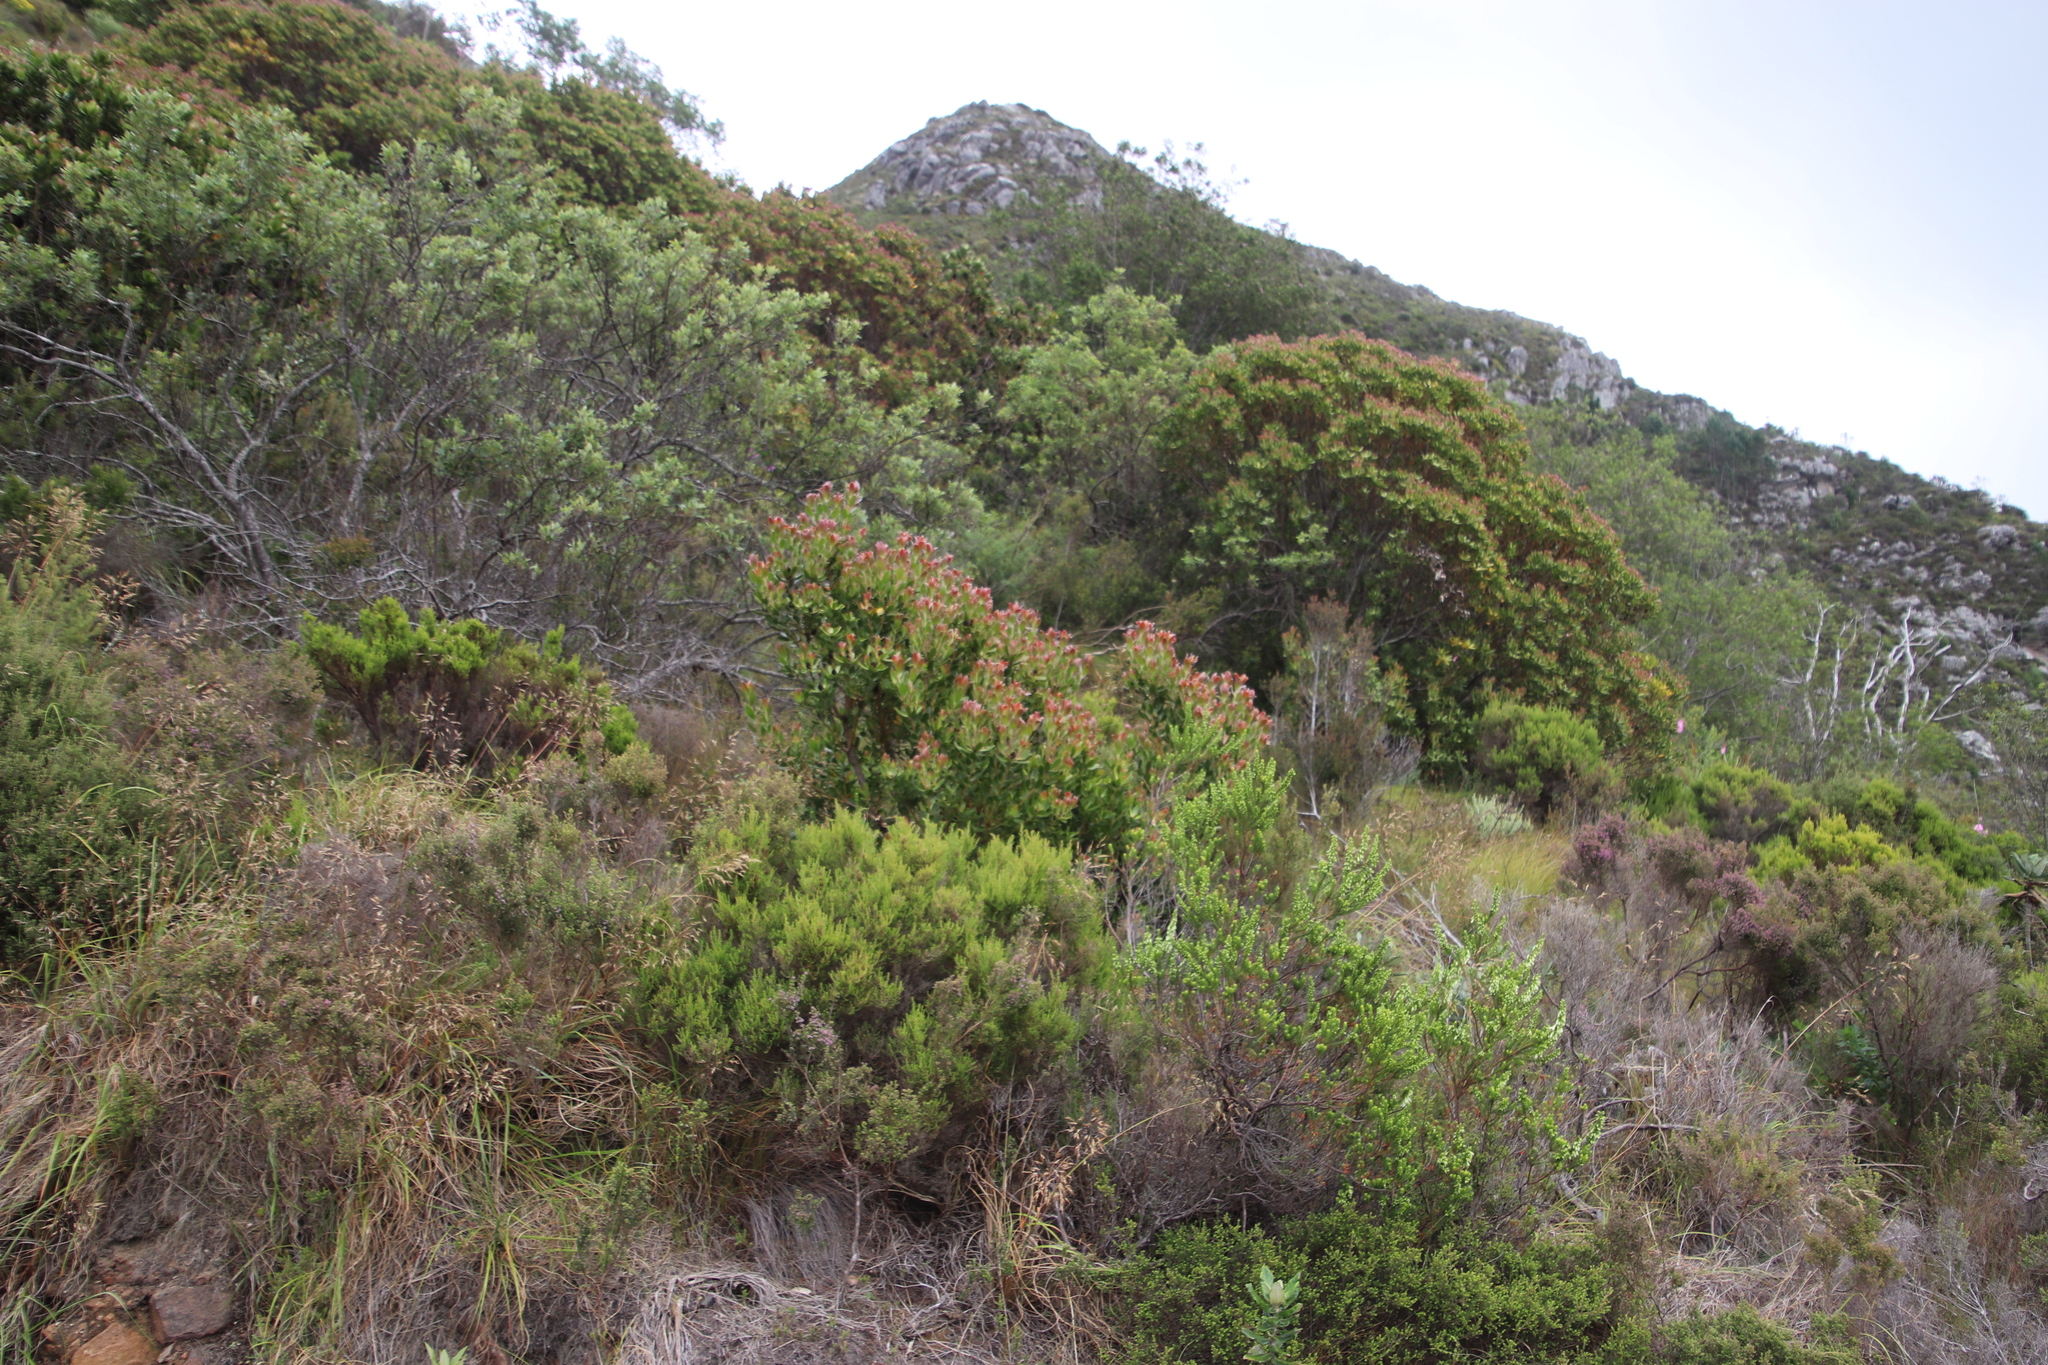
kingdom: Plantae
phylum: Tracheophyta
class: Magnoliopsida
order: Proteales
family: Proteaceae
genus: Leucadendron
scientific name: Leucadendron strobilinum
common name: Mountain rose
